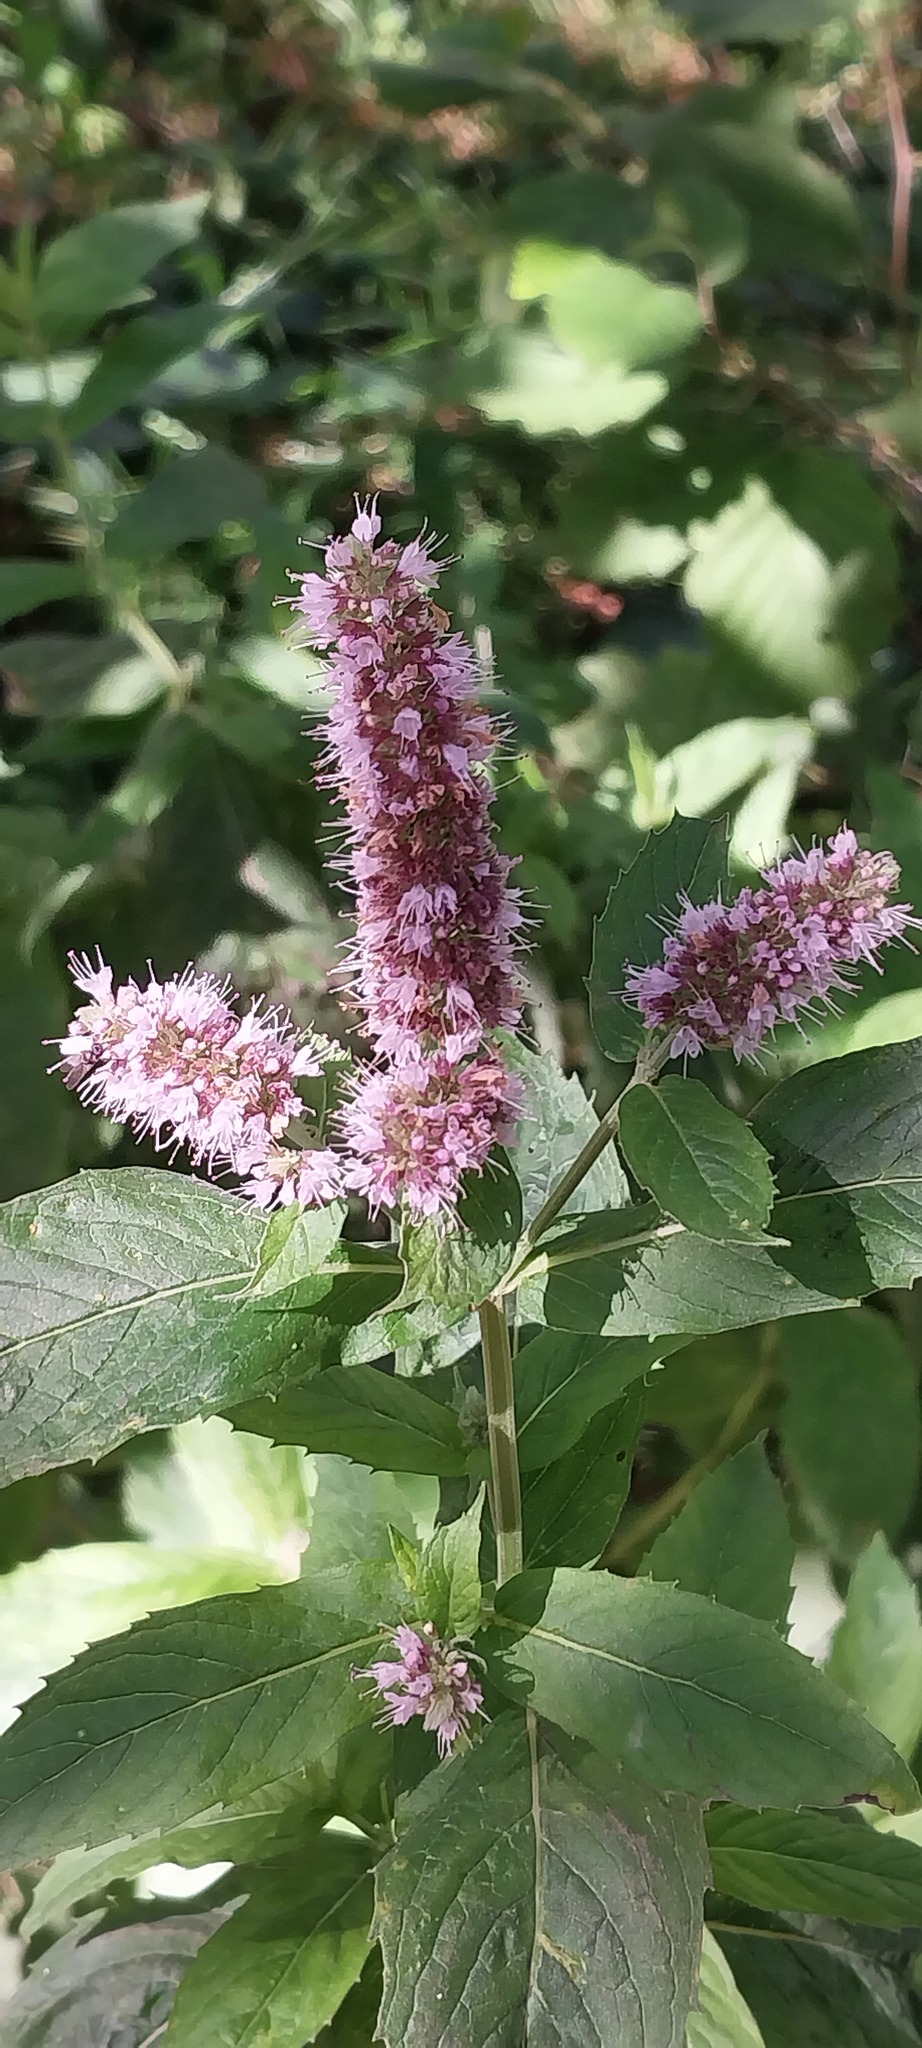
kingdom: Plantae
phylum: Tracheophyta
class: Magnoliopsida
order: Lamiales
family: Lamiaceae
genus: Mentha
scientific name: Mentha longifolia
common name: Horse mint
